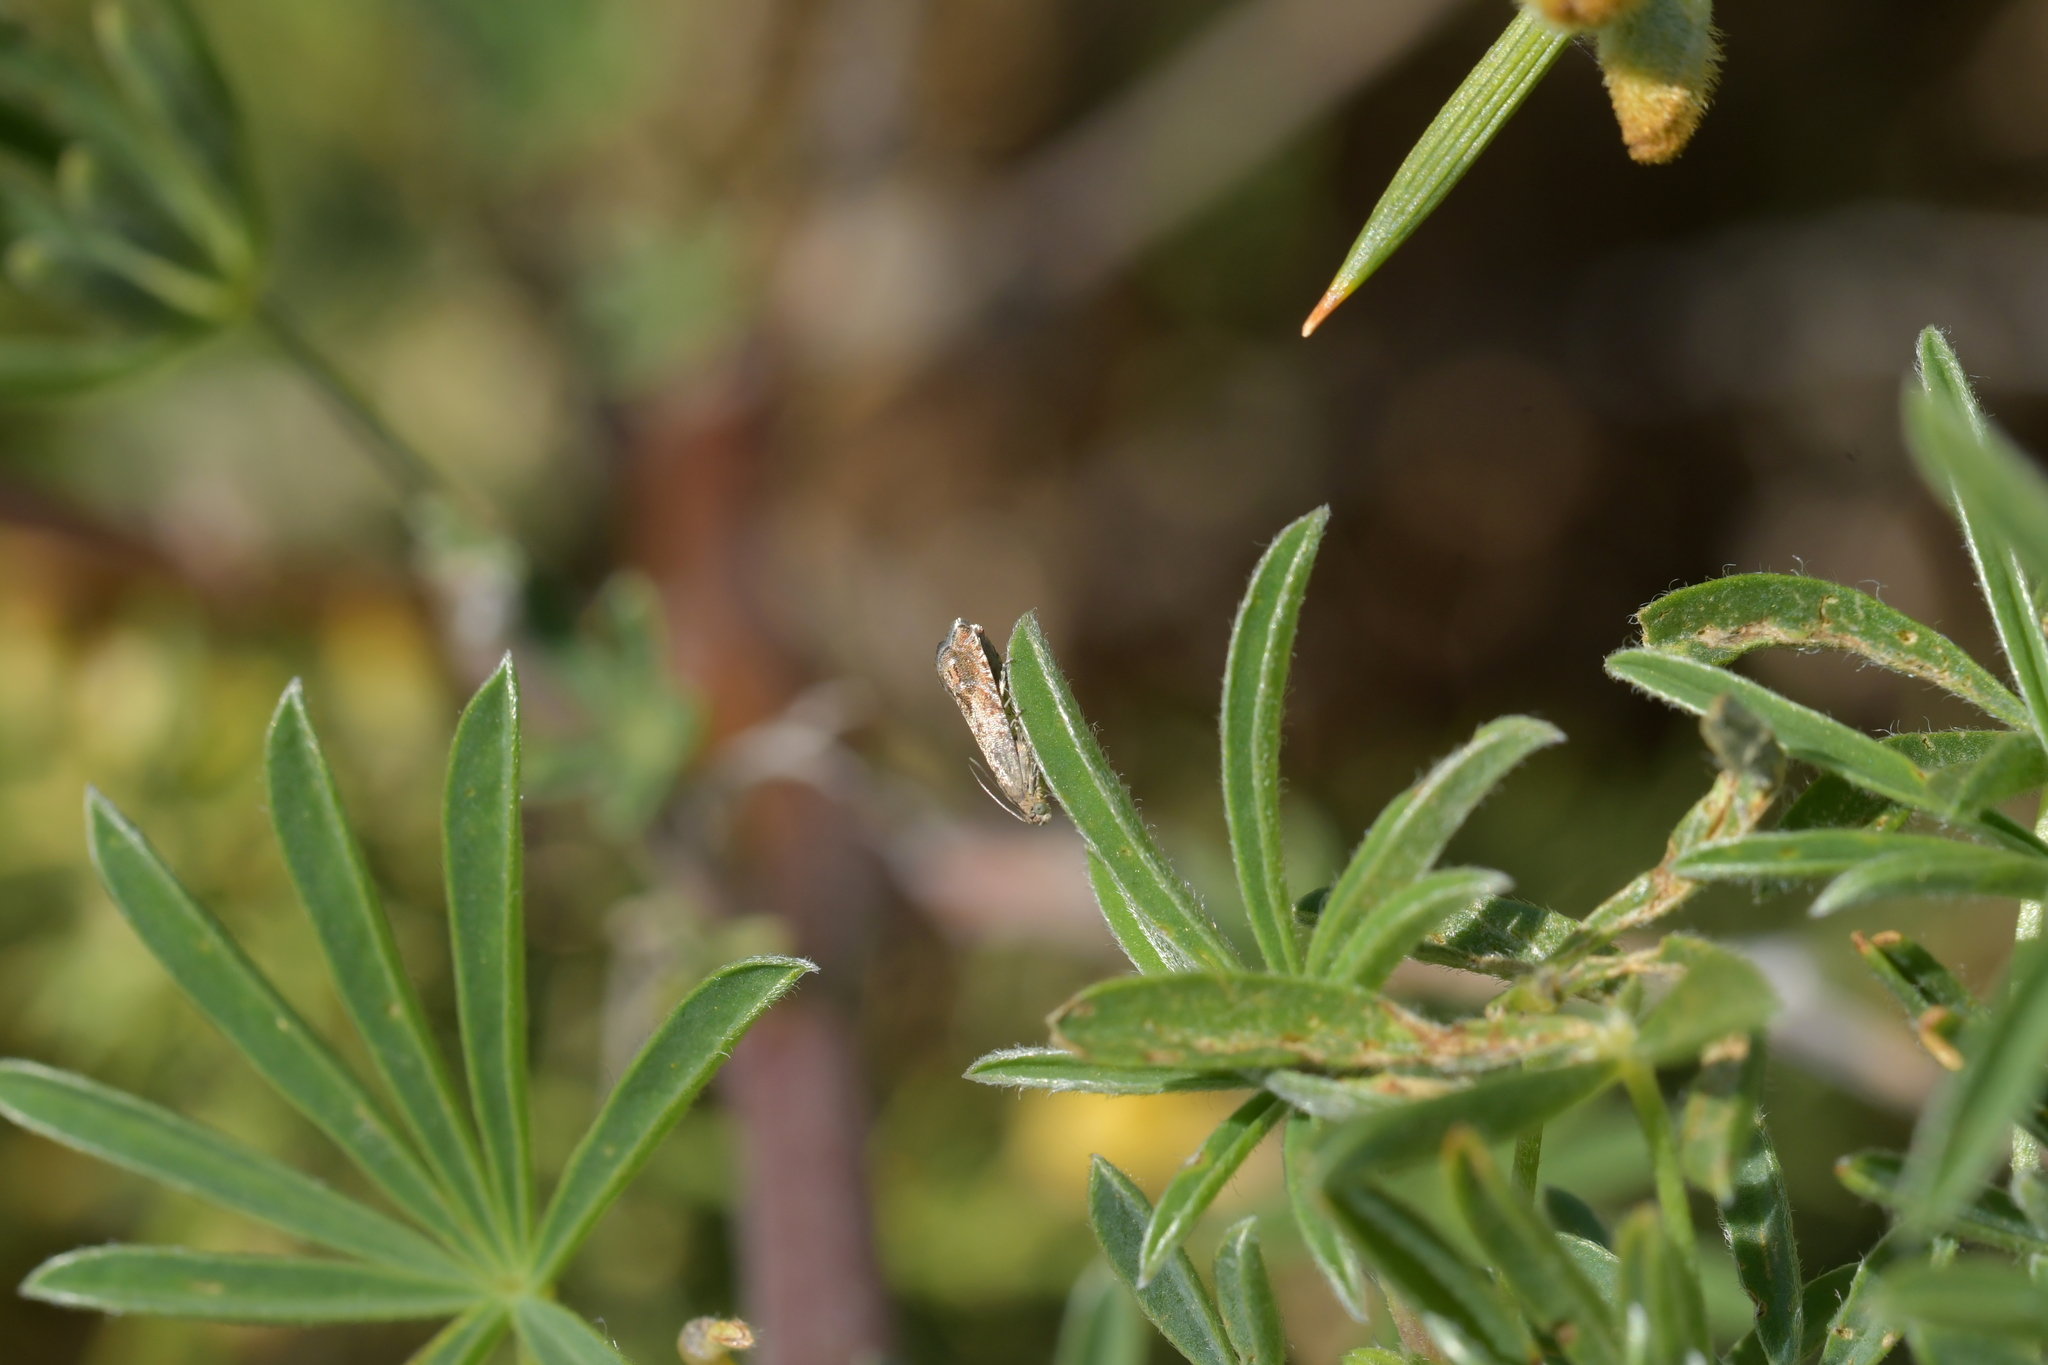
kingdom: Animalia
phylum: Arthropoda
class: Insecta
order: Lepidoptera
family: Tortricidae
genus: Cydia
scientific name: Cydia succedana
